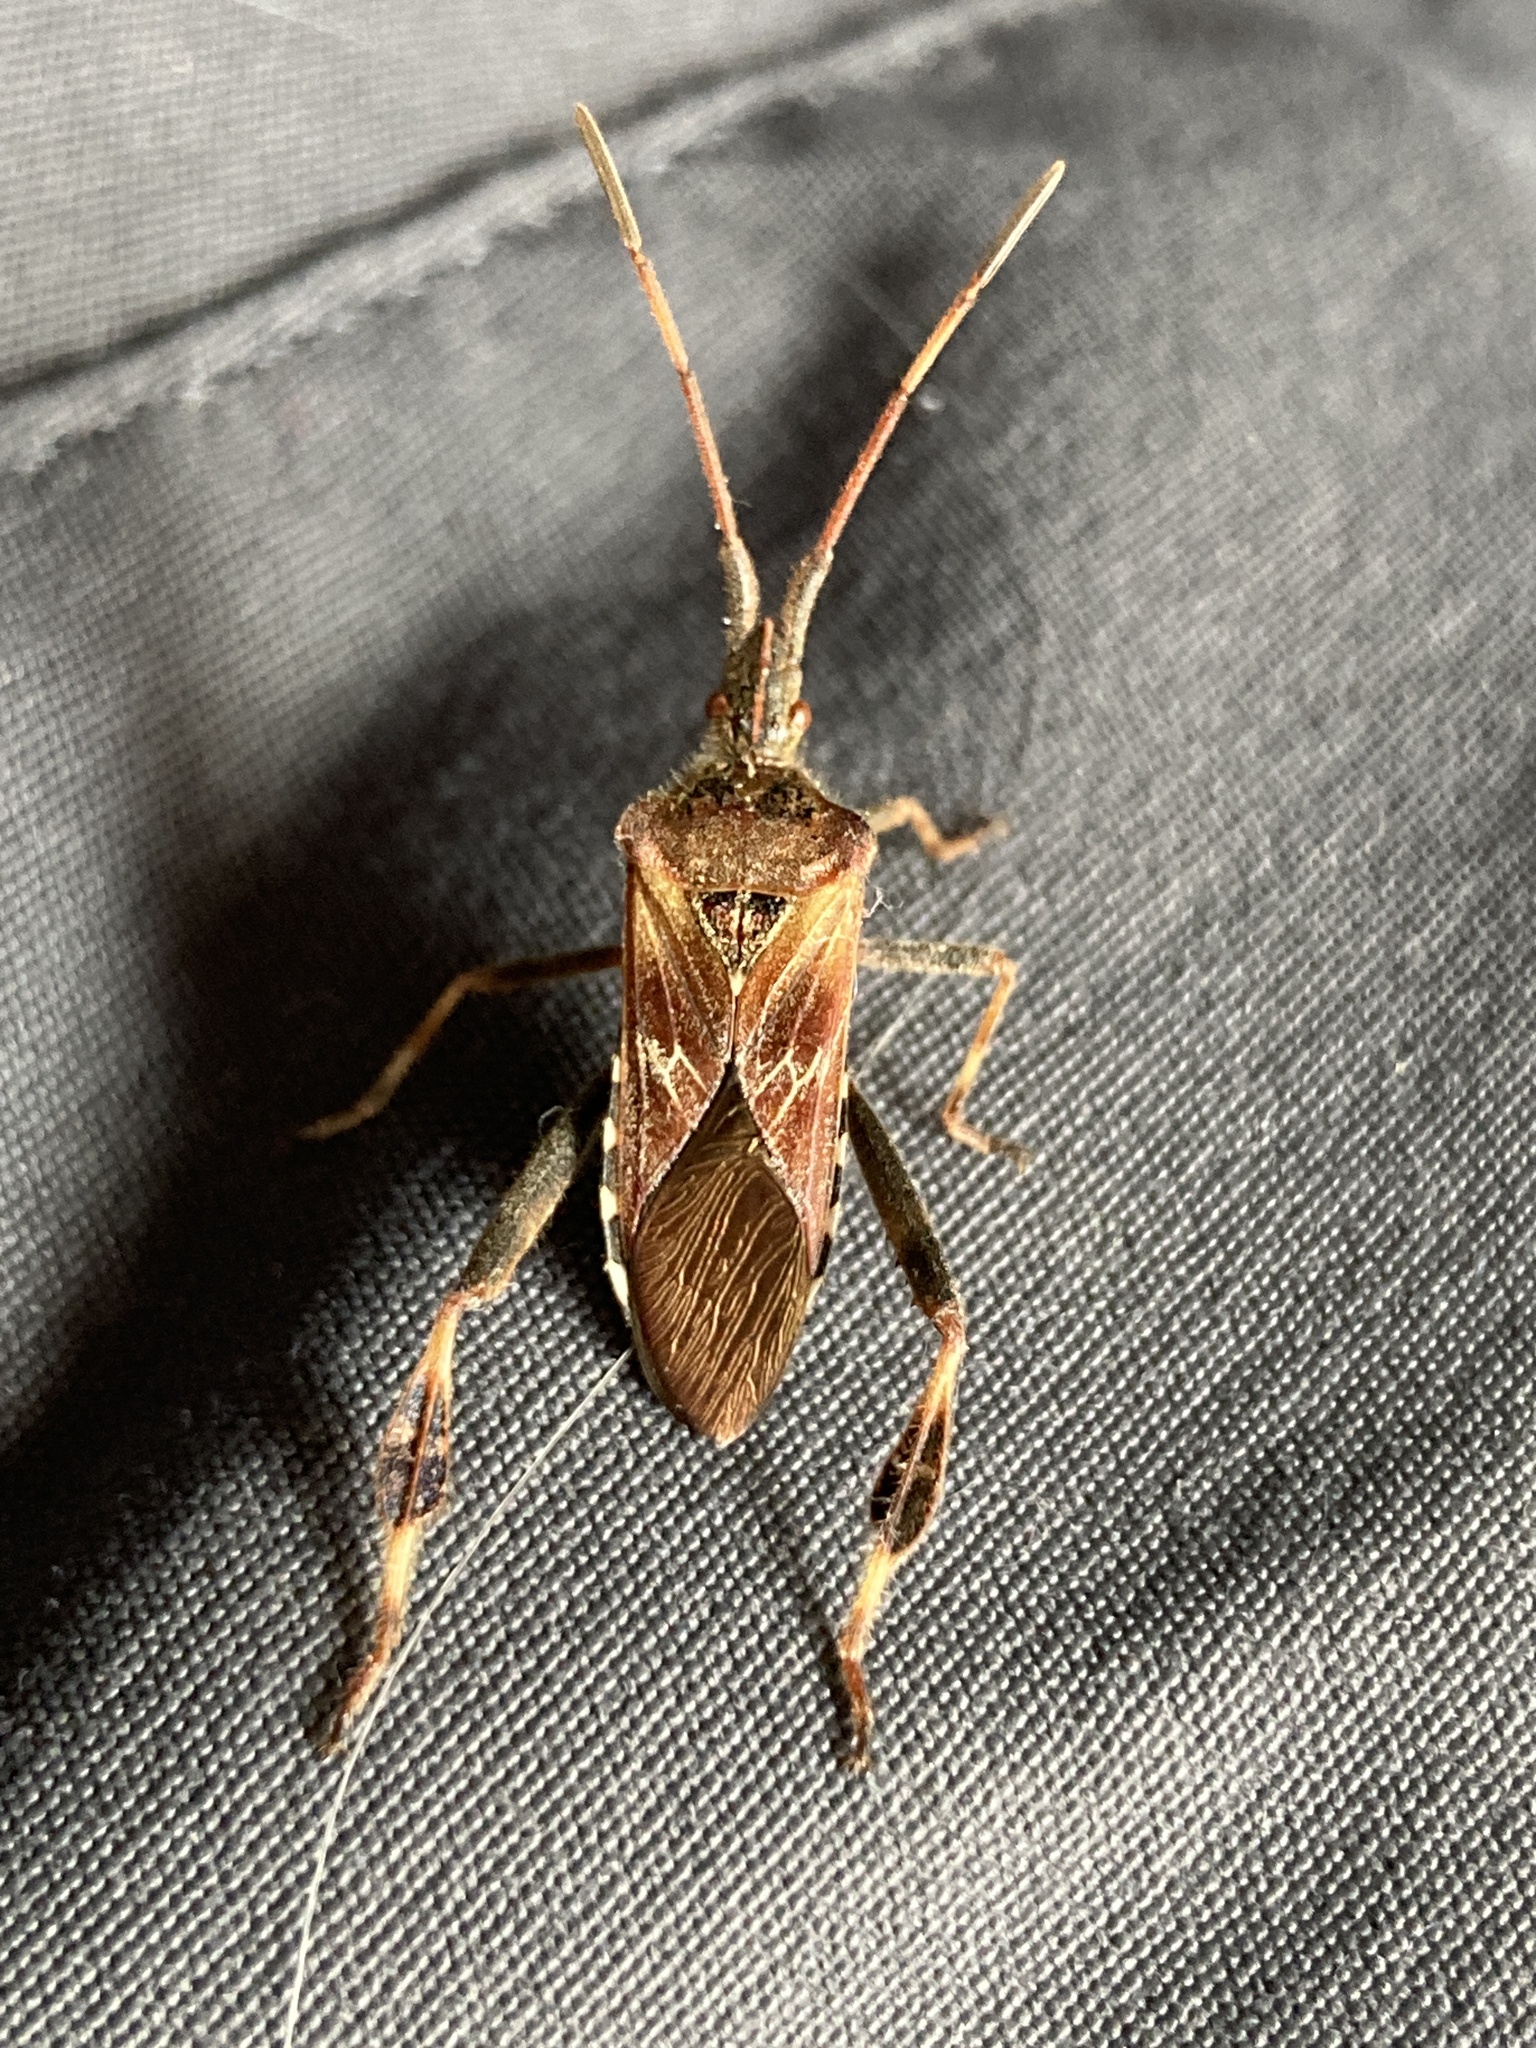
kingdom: Animalia
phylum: Arthropoda
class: Insecta
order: Hemiptera
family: Coreidae
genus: Leptoglossus
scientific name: Leptoglossus occidentalis
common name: Western conifer-seed bug
